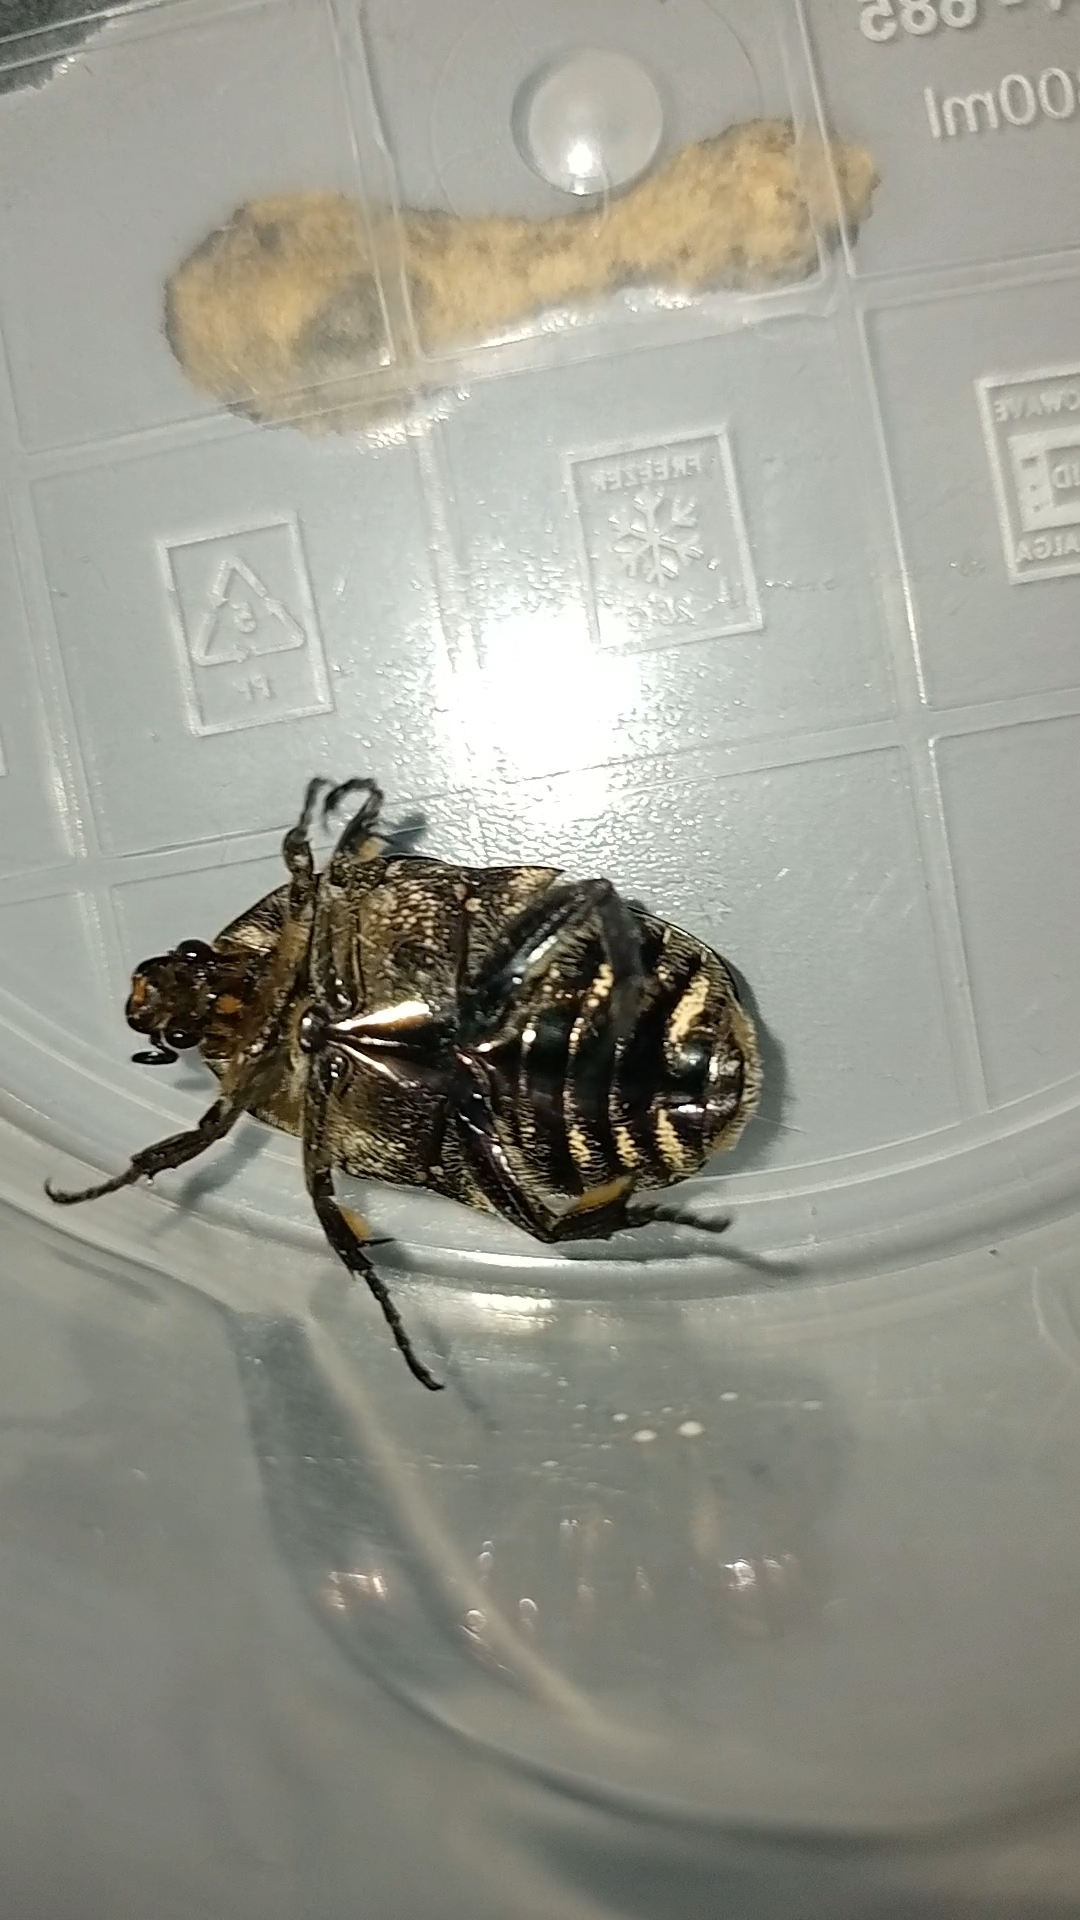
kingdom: Animalia
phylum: Arthropoda
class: Insecta
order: Coleoptera
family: Scarabaeidae
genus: Protaetia
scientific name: Protaetia cuprea
